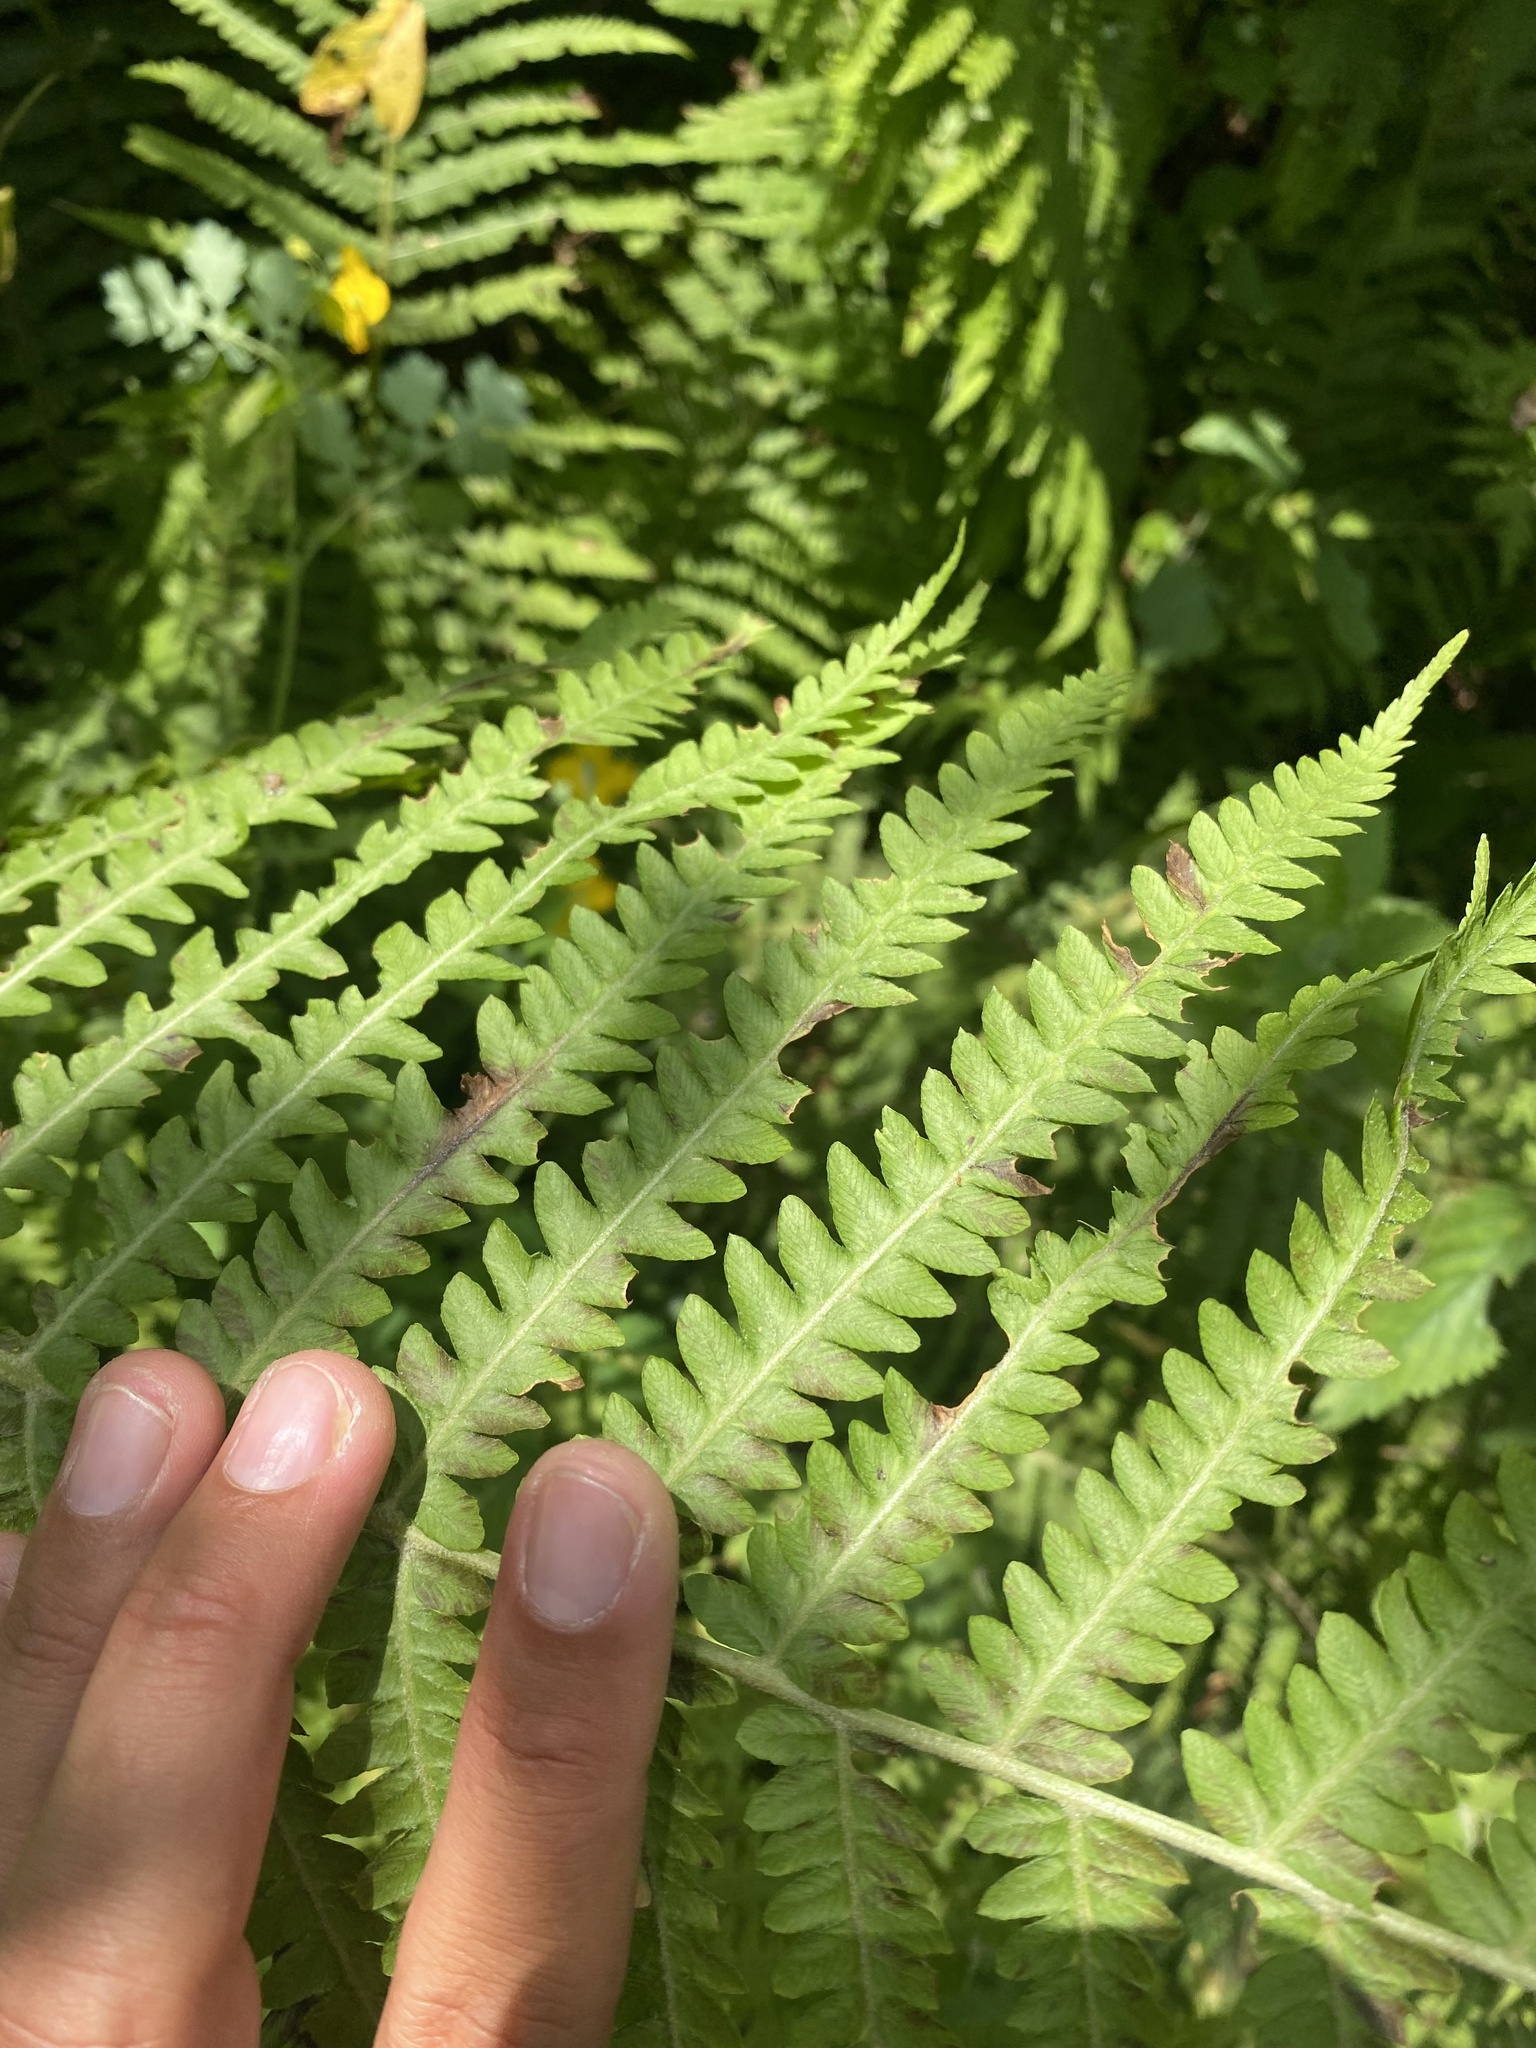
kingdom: Plantae
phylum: Tracheophyta
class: Polypodiopsida
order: Polypodiales
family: Onocleaceae
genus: Matteuccia
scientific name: Matteuccia struthiopteris
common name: Ostrich fern
